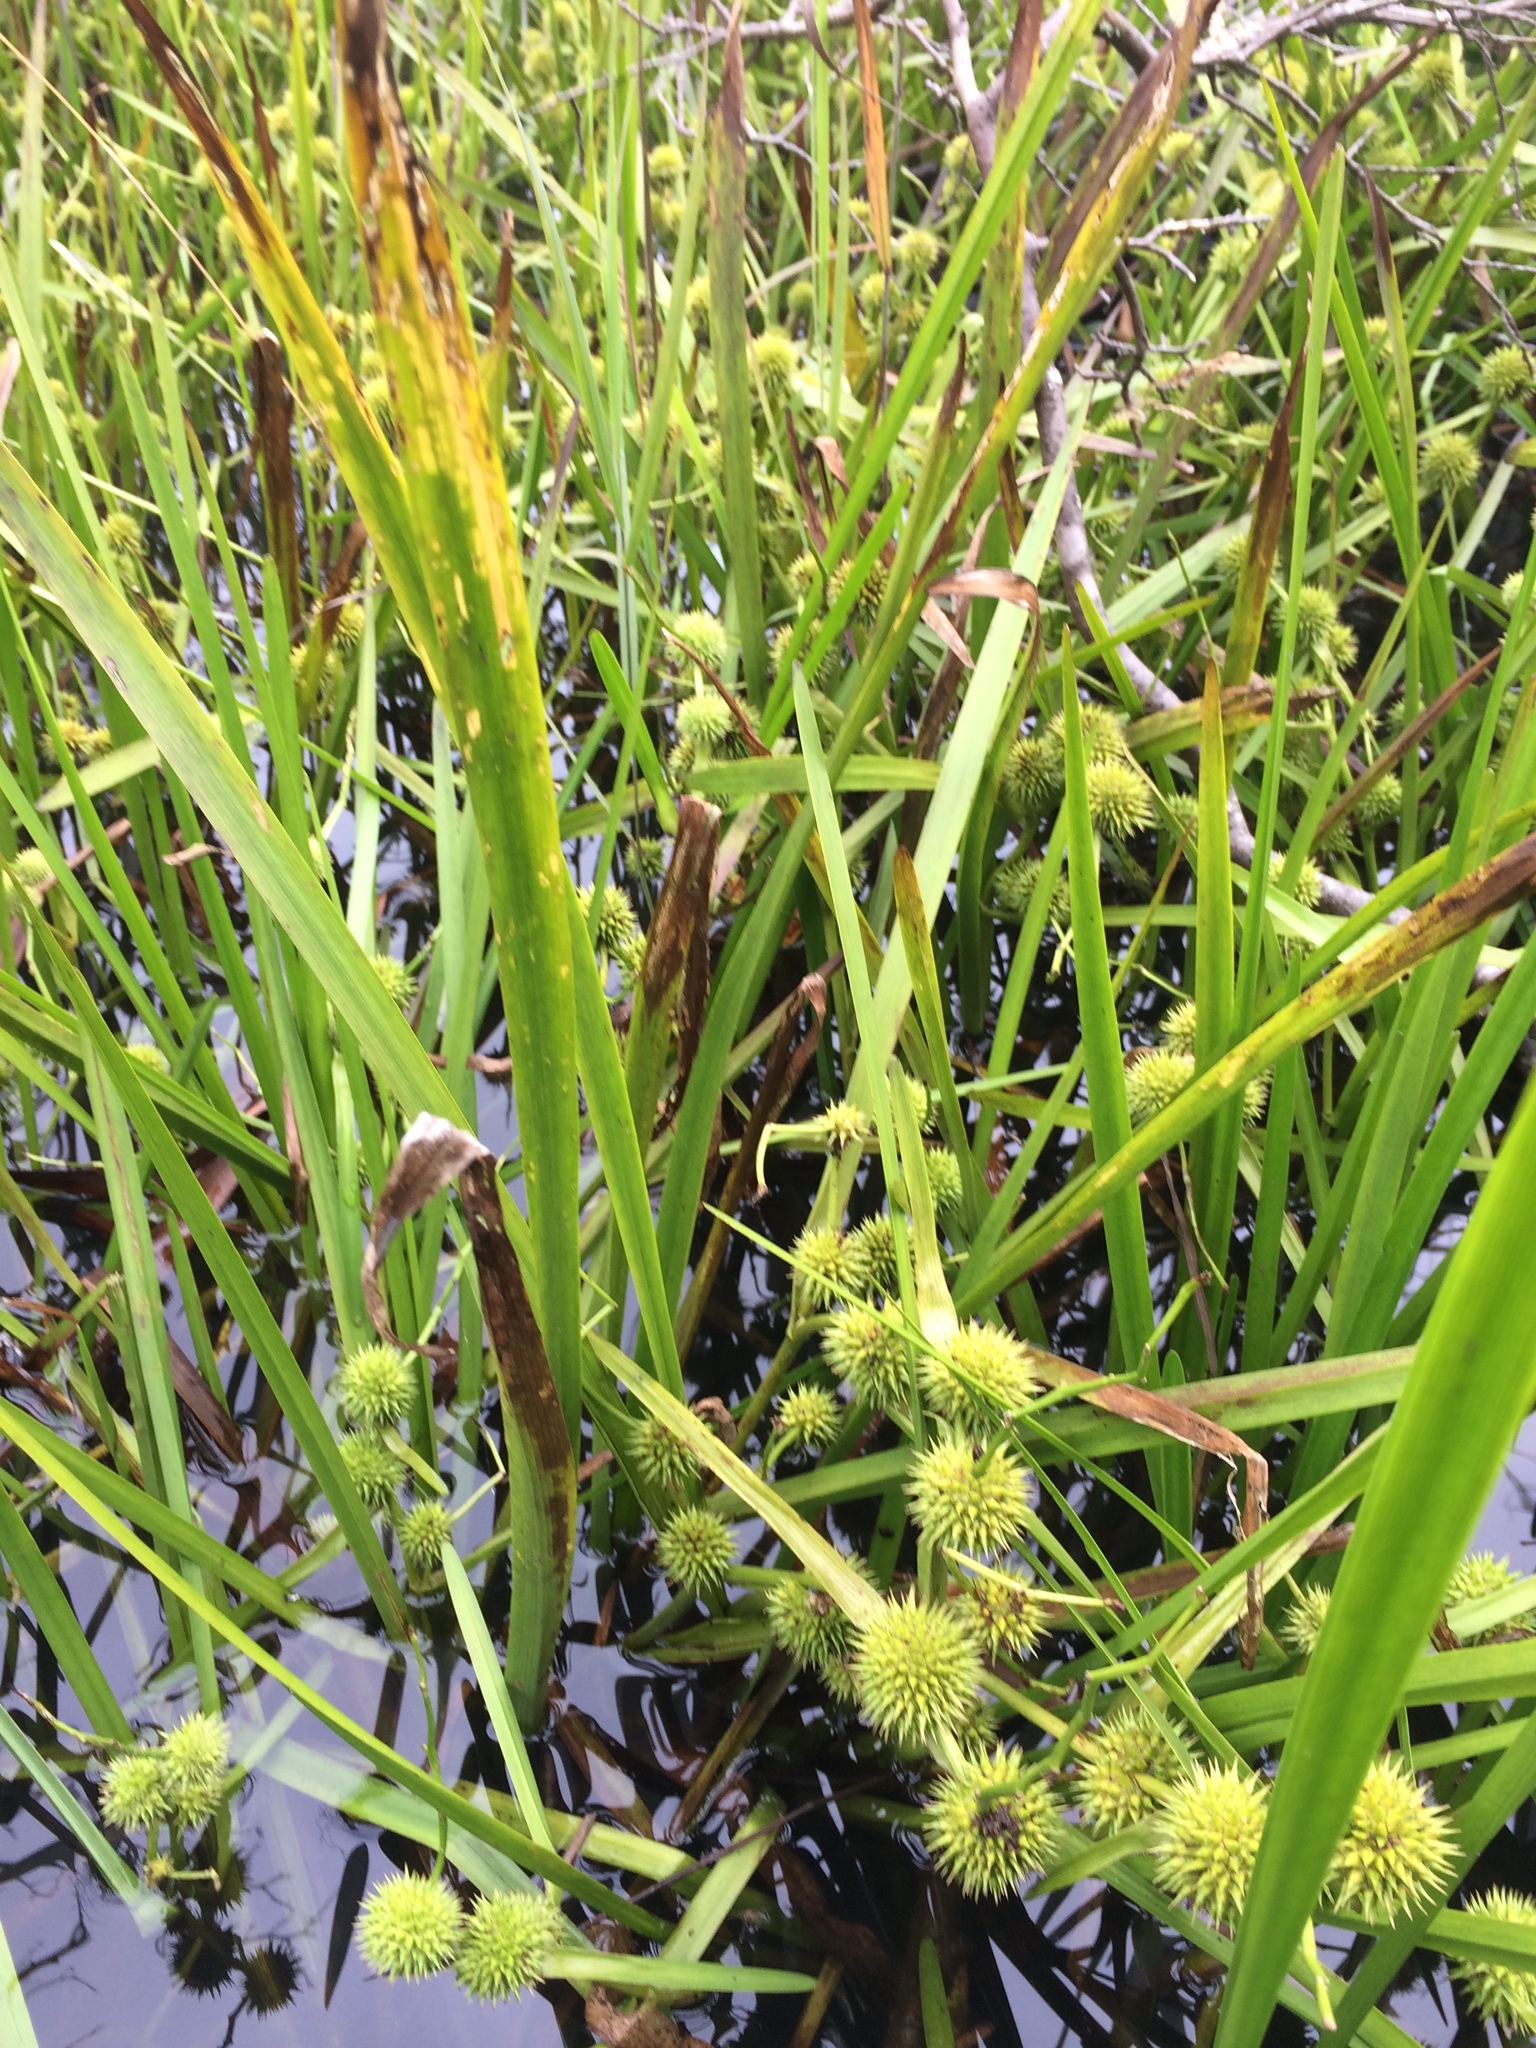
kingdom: Plantae
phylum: Tracheophyta
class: Liliopsida
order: Poales
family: Typhaceae
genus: Sparganium
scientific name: Sparganium emersum
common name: Unbranched bur-reed
